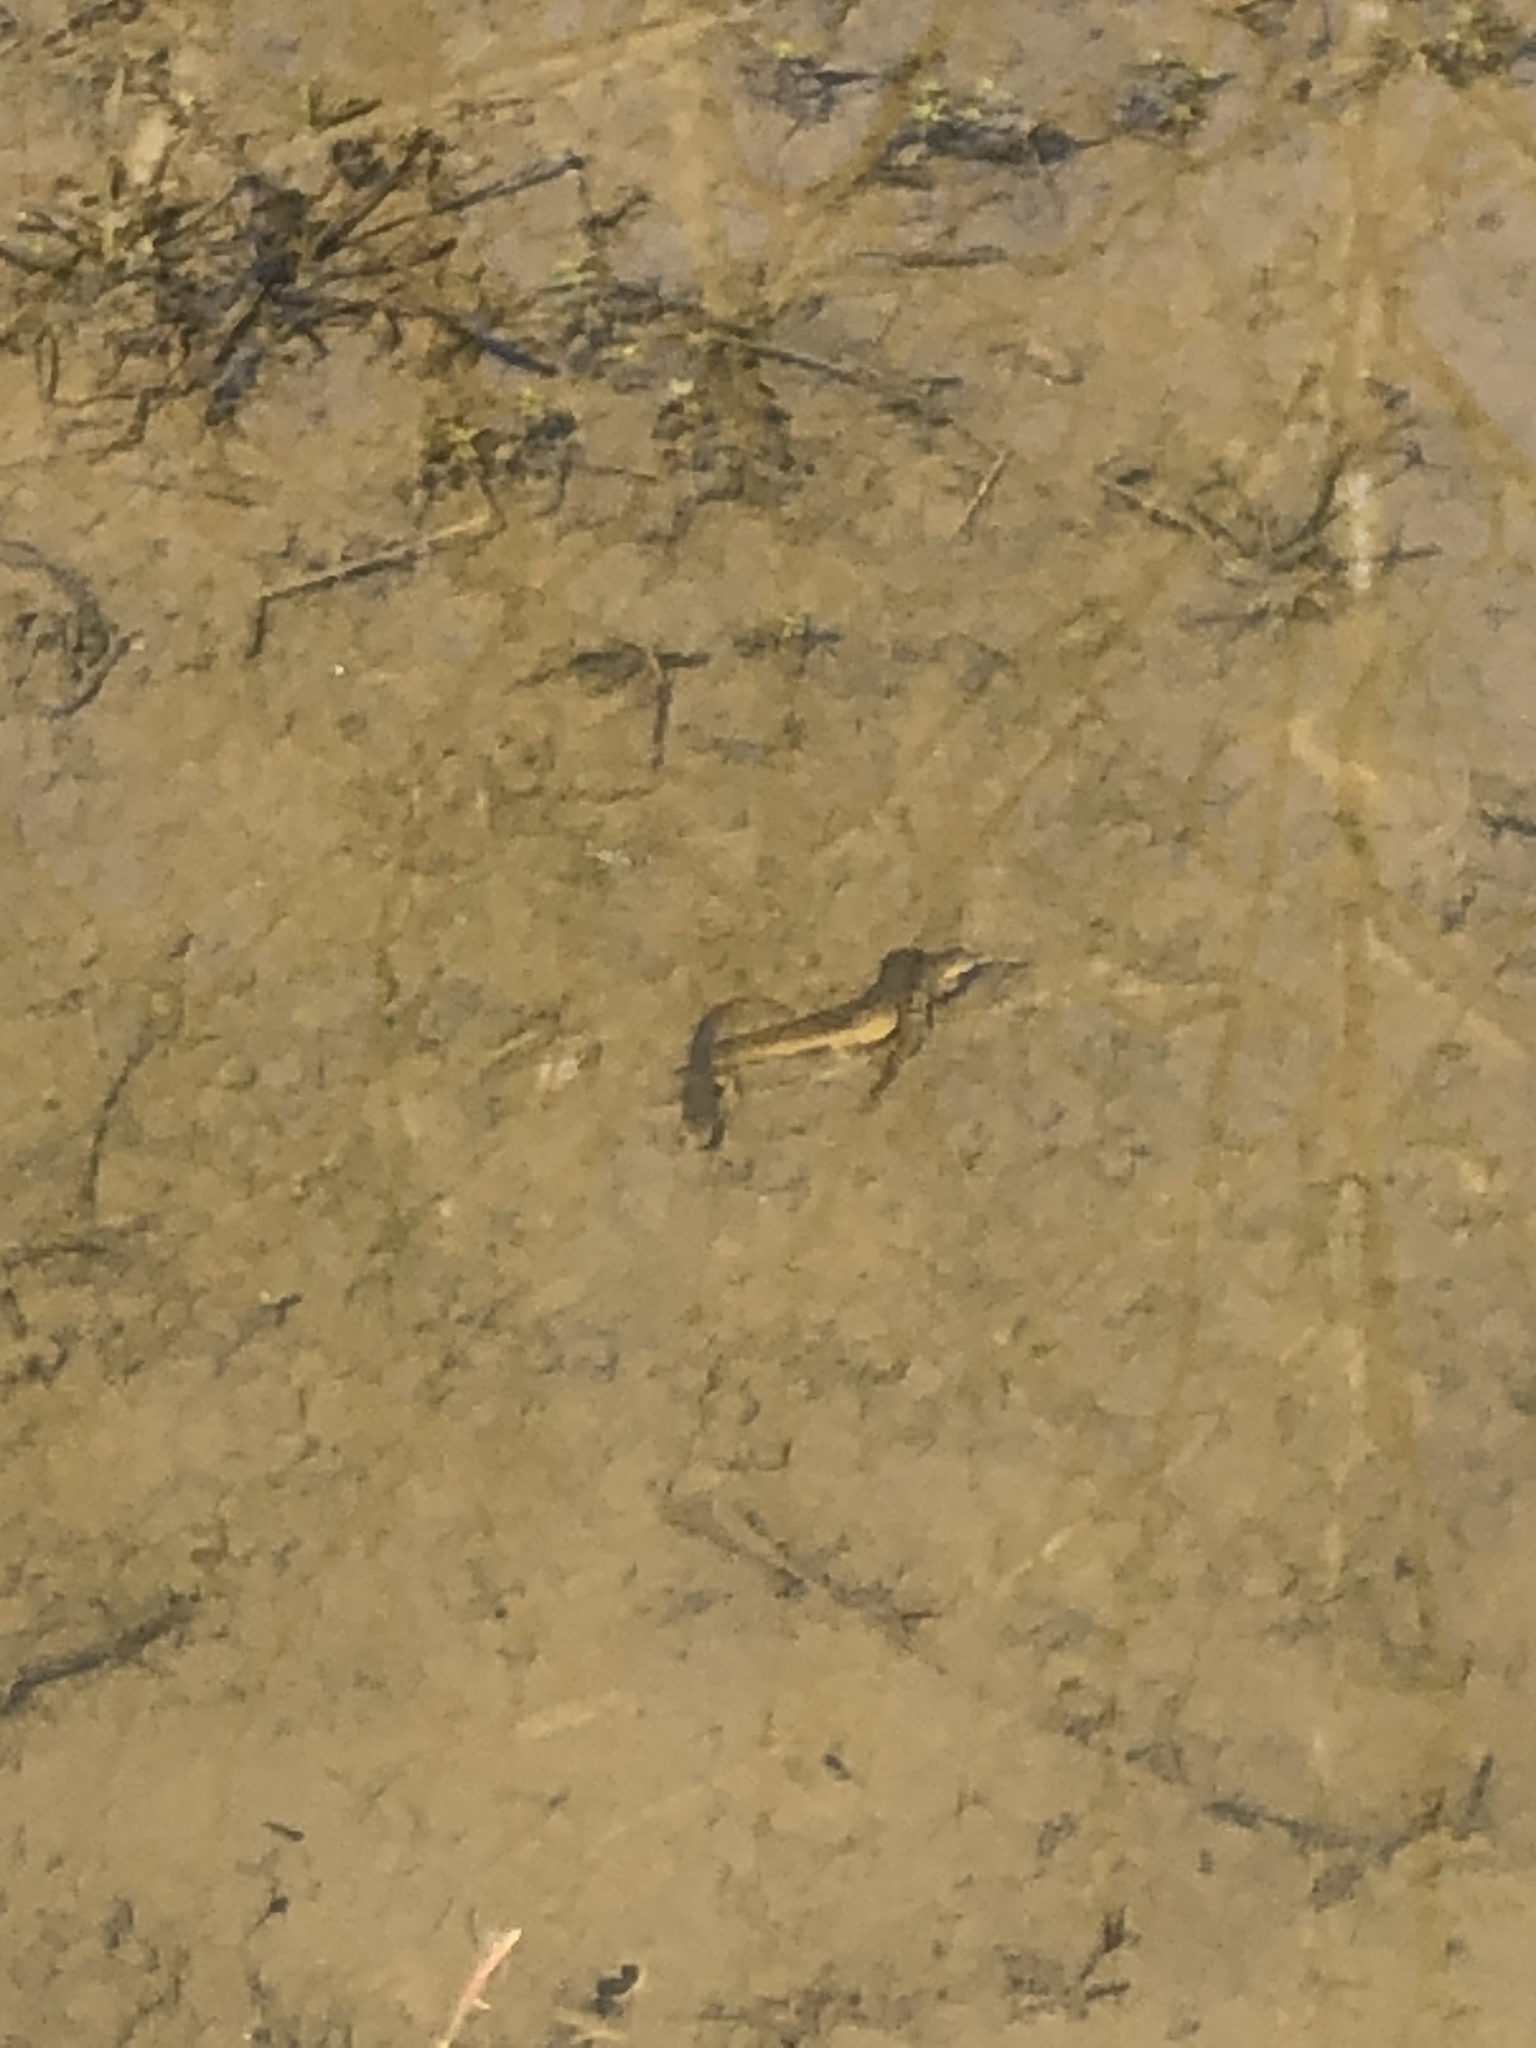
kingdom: Animalia
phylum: Chordata
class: Amphibia
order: Caudata
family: Salamandridae
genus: Notophthalmus
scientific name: Notophthalmus viridescens
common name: Eastern newt
